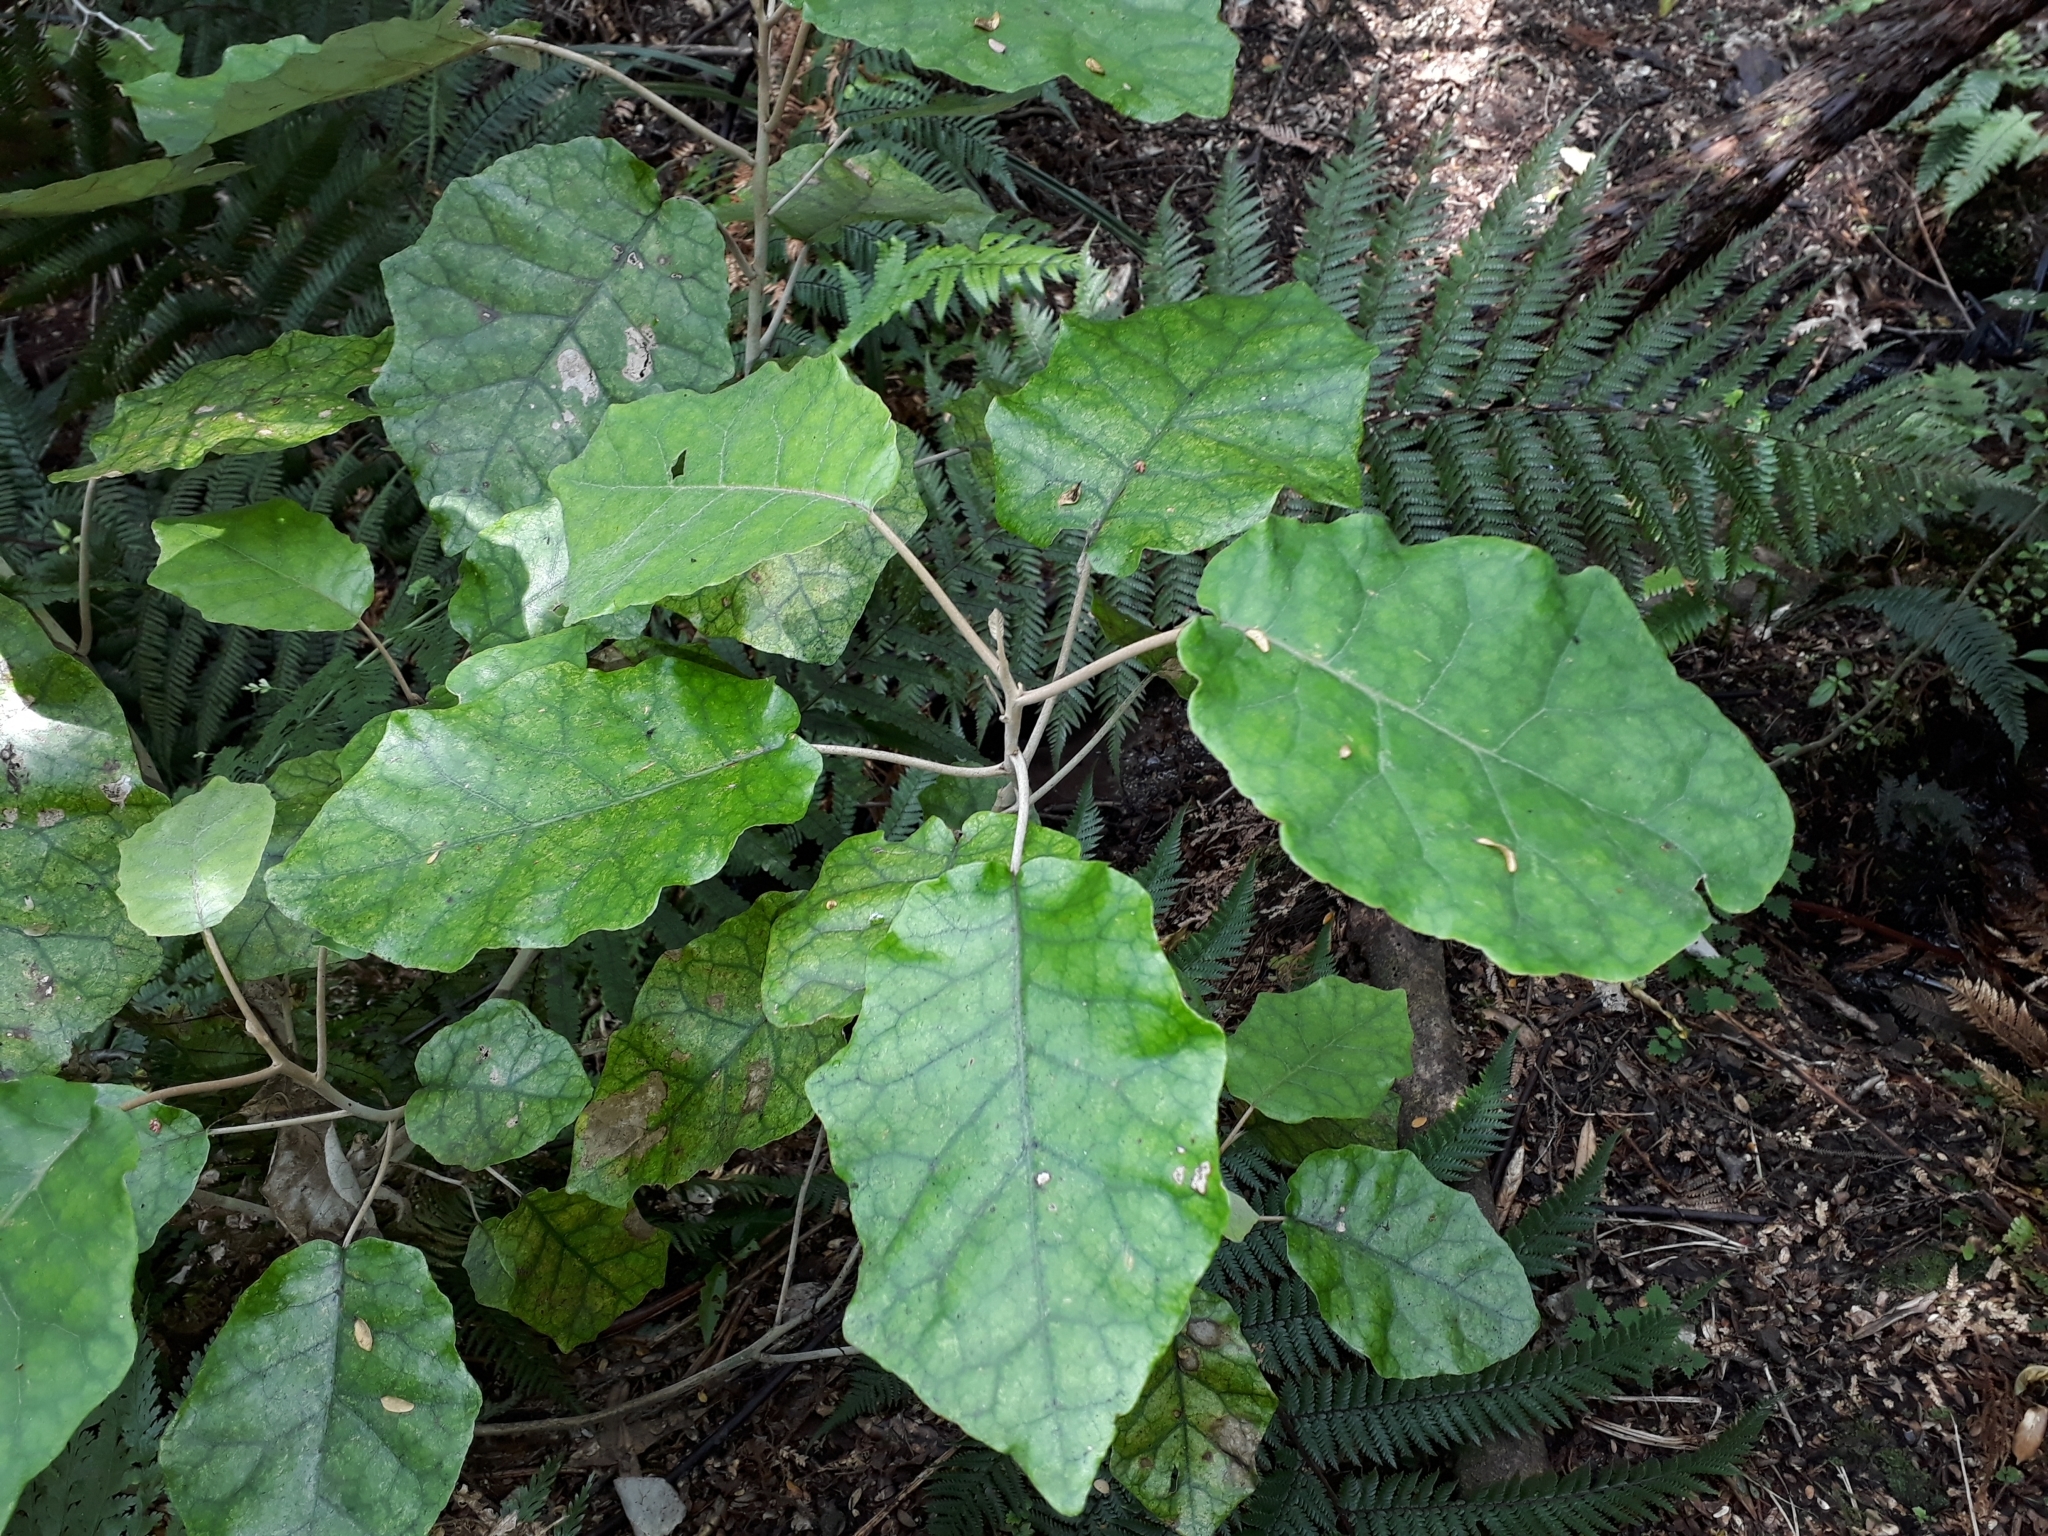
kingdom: Plantae
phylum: Tracheophyta
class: Magnoliopsida
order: Asterales
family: Asteraceae
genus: Brachyglottis
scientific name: Brachyglottis repanda
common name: Hedge ragwort
